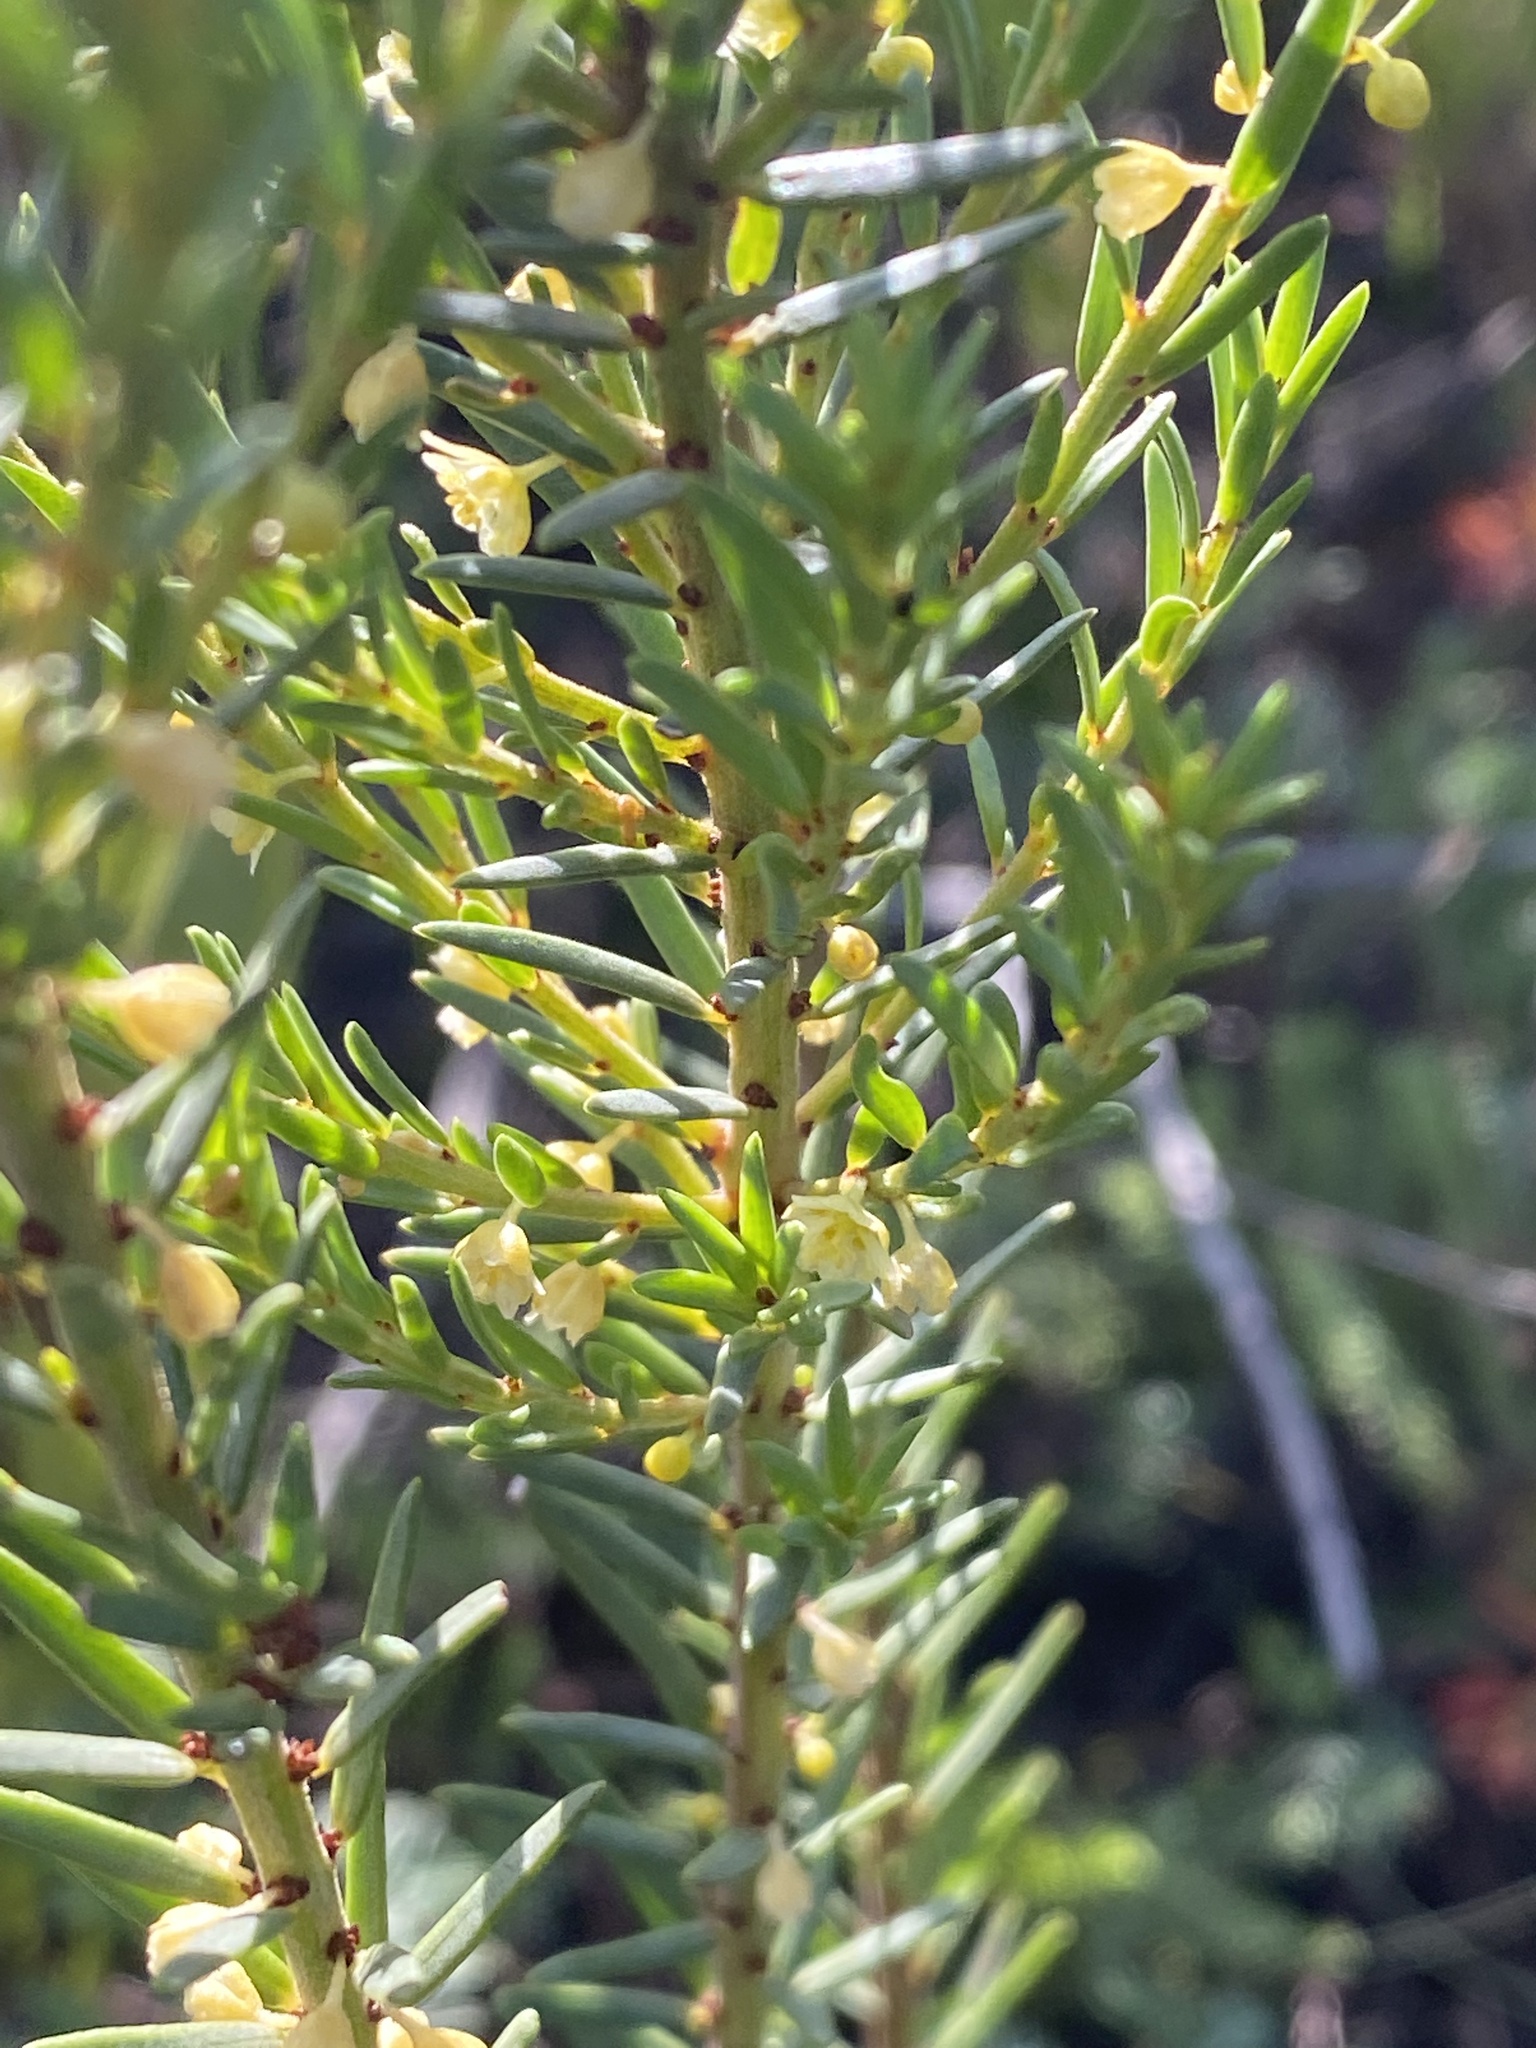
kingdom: Plantae
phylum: Tracheophyta
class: Magnoliopsida
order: Malpighiales
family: Peraceae
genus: Clutia
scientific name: Clutia polifolia
